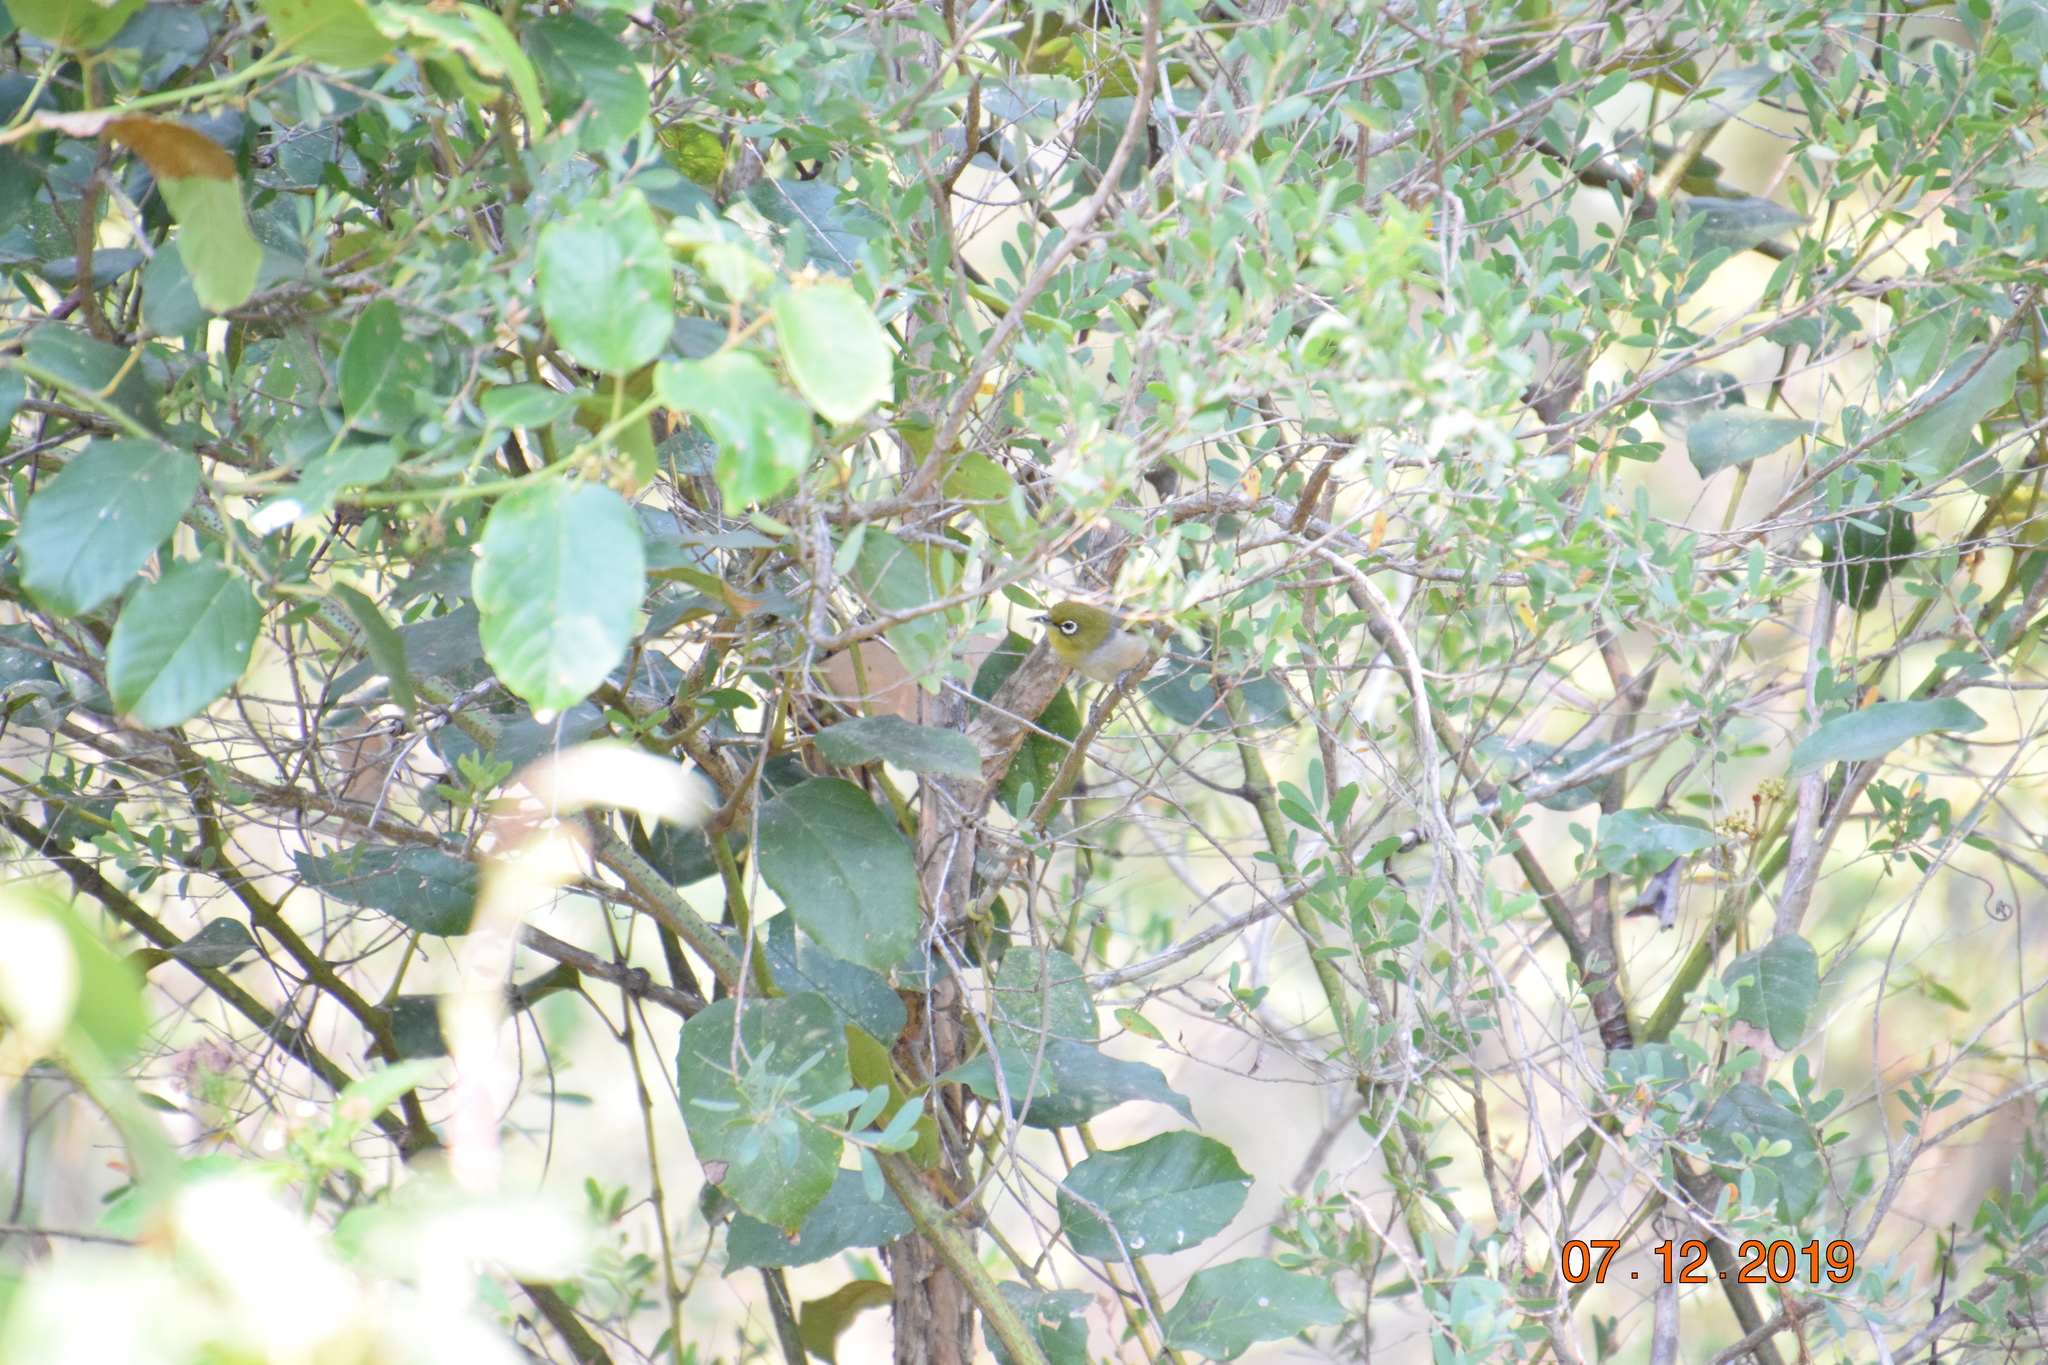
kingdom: Animalia
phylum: Chordata
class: Aves
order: Passeriformes
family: Zosteropidae
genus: Zosterops
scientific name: Zosterops lateralis
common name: Silvereye
